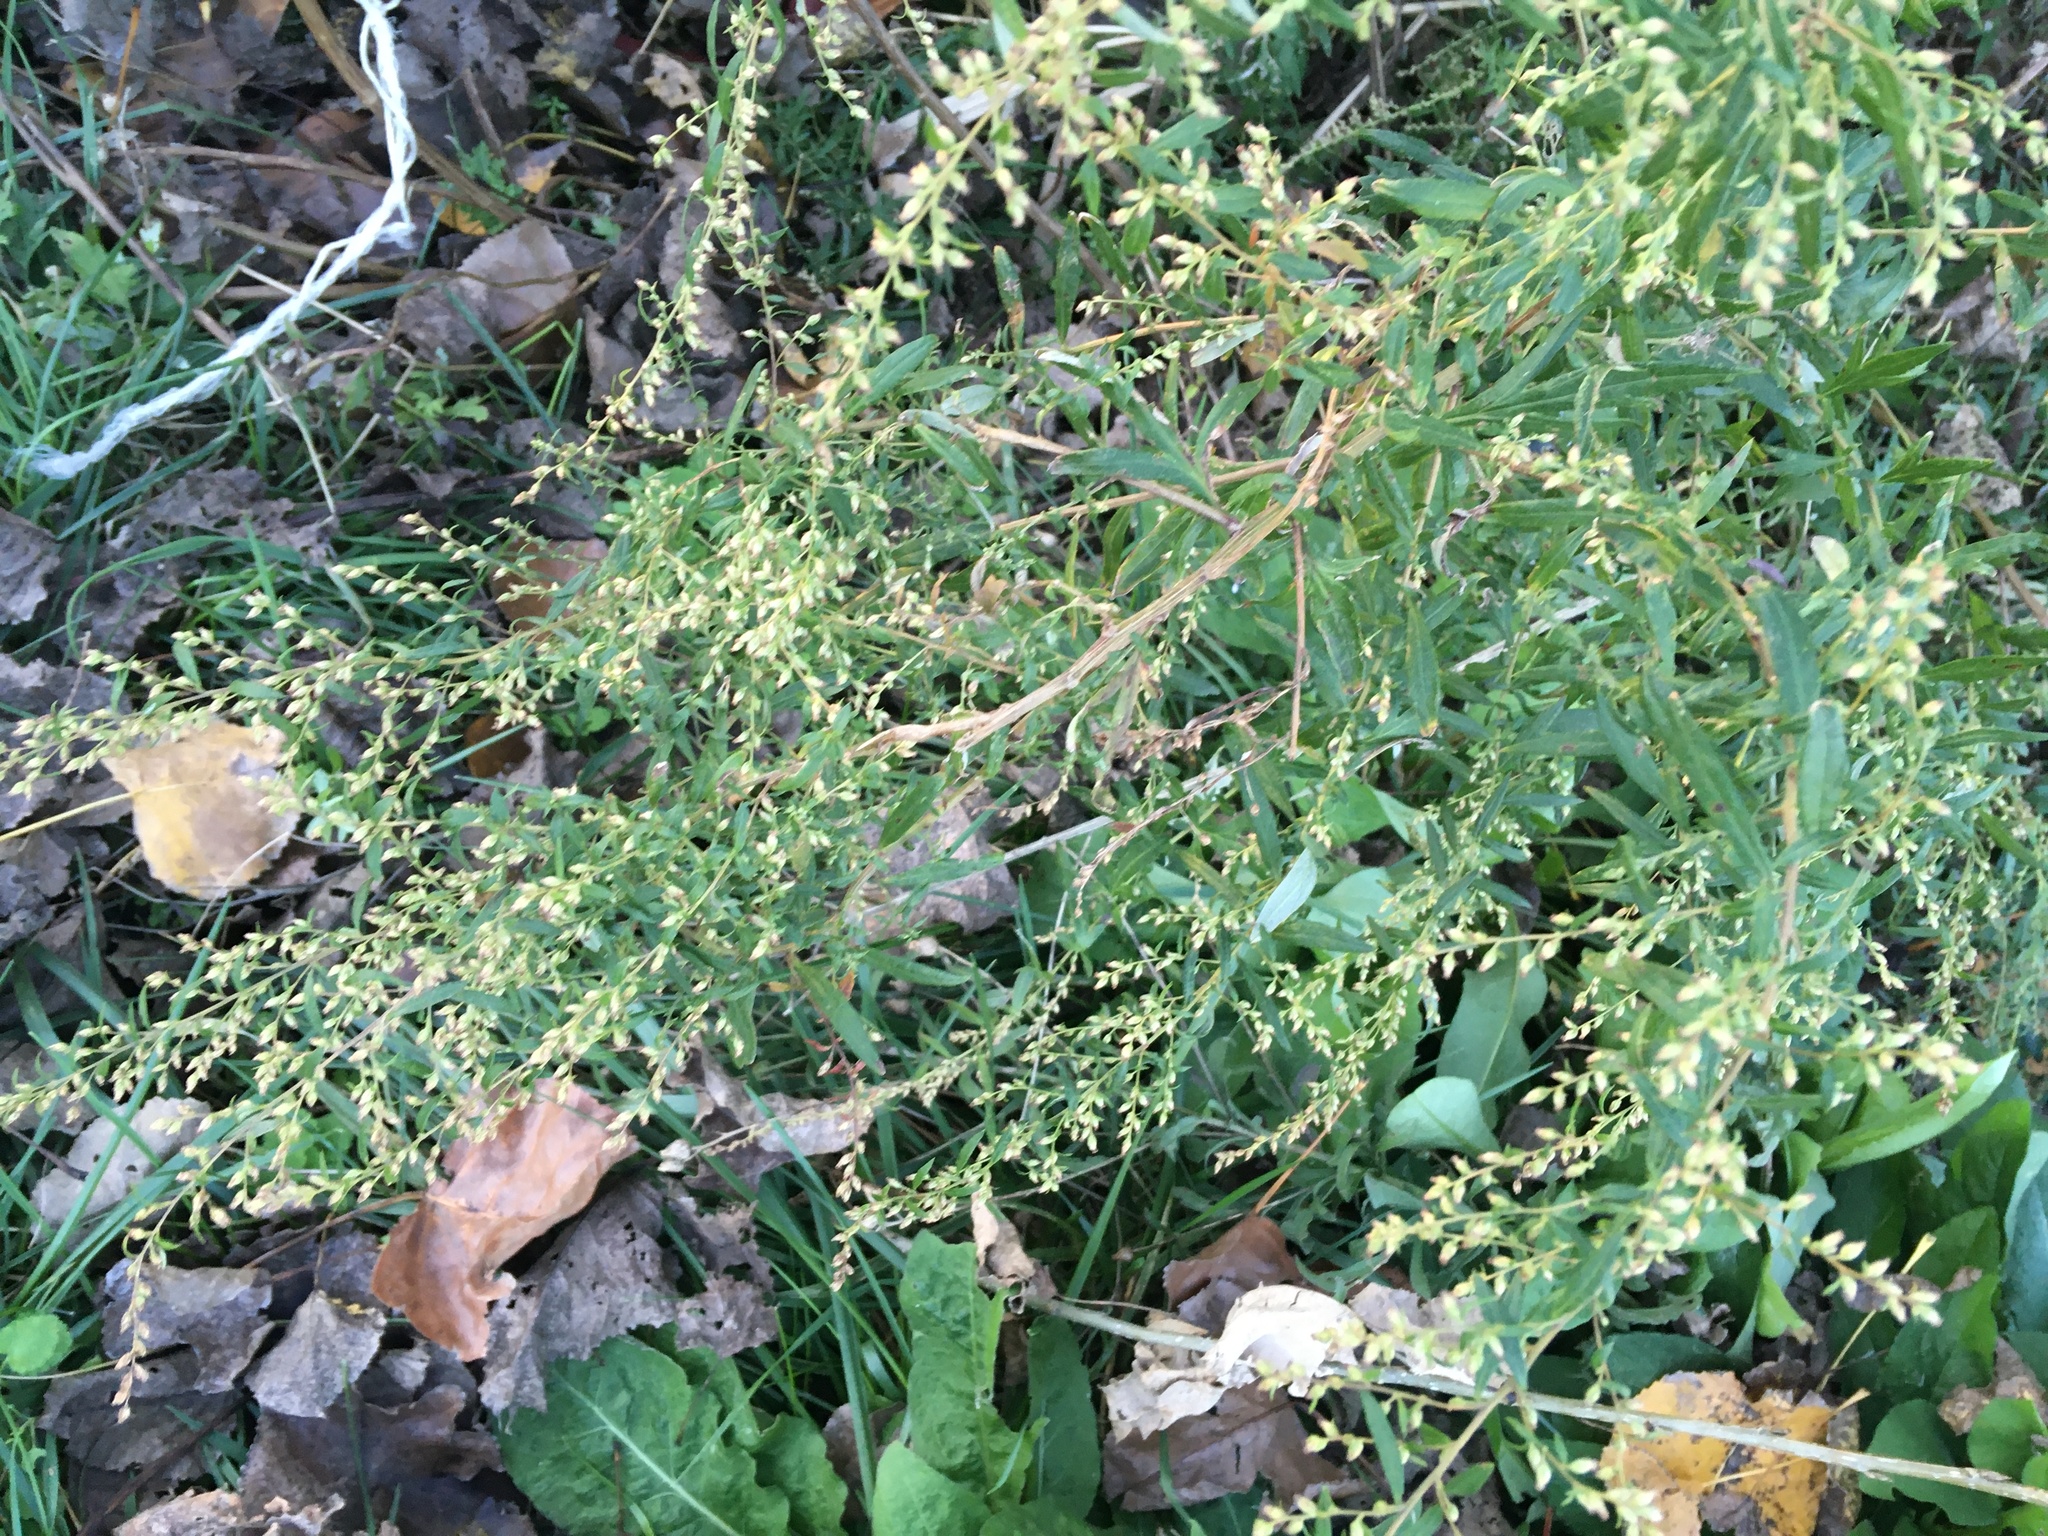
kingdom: Plantae
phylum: Tracheophyta
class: Magnoliopsida
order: Asterales
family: Asteraceae
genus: Artemisia
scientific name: Artemisia vulgaris
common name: Mugwort
